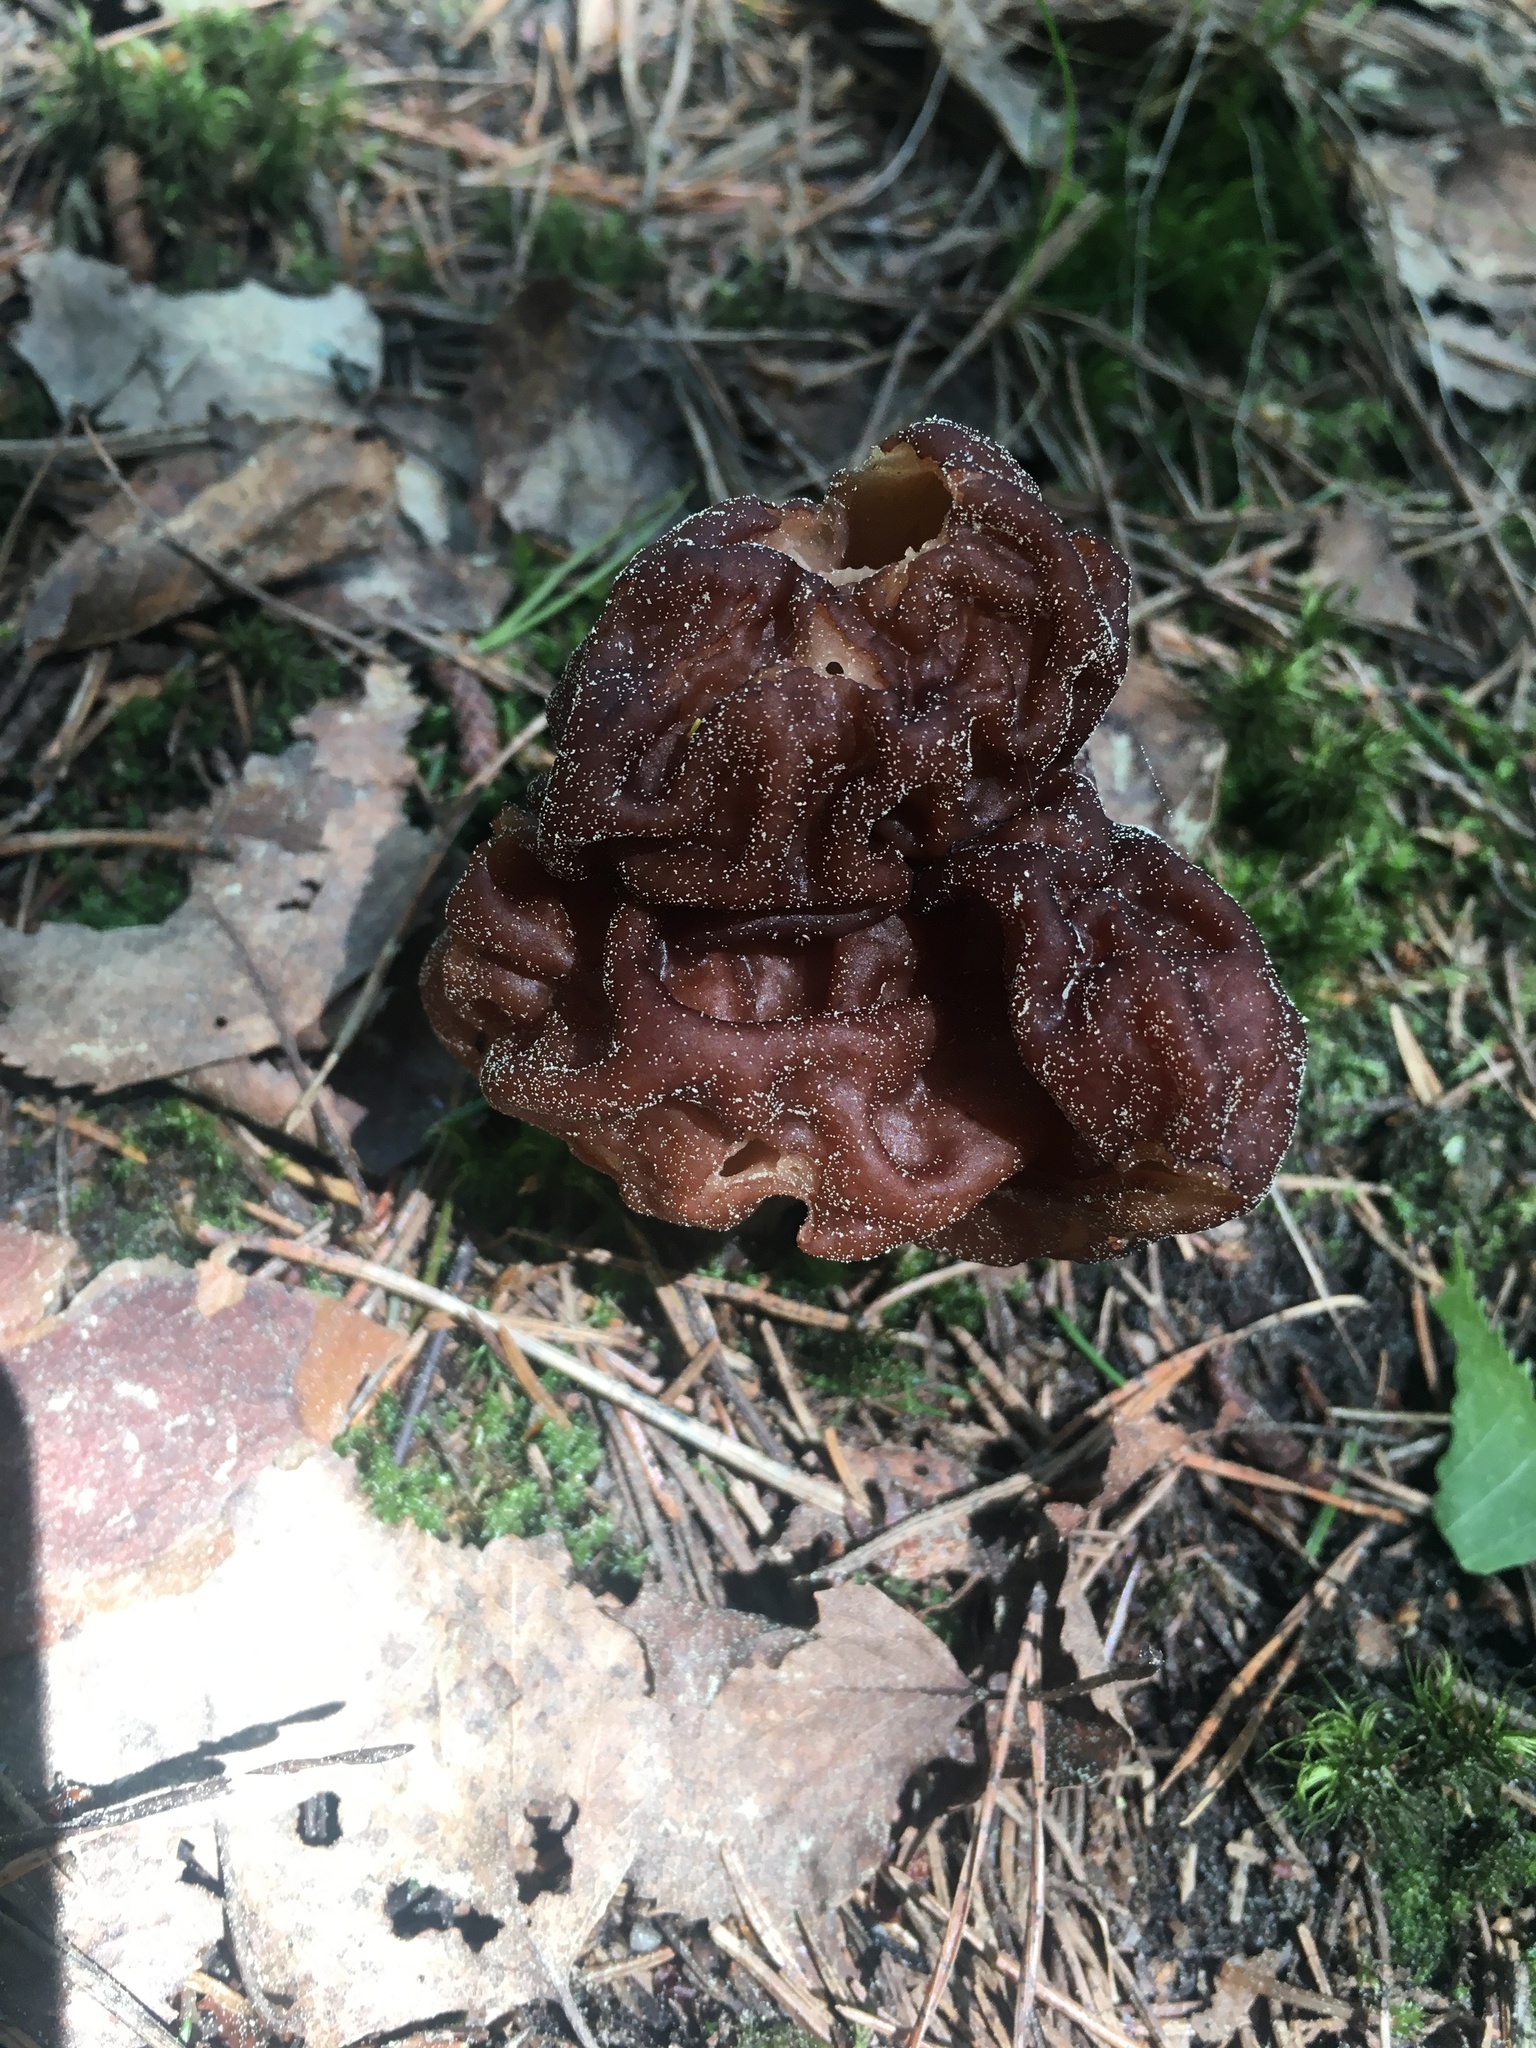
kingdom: Fungi
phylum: Ascomycota
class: Pezizomycetes
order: Pezizales
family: Discinaceae
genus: Gyromitra
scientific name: Gyromitra esculenta
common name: False morel
